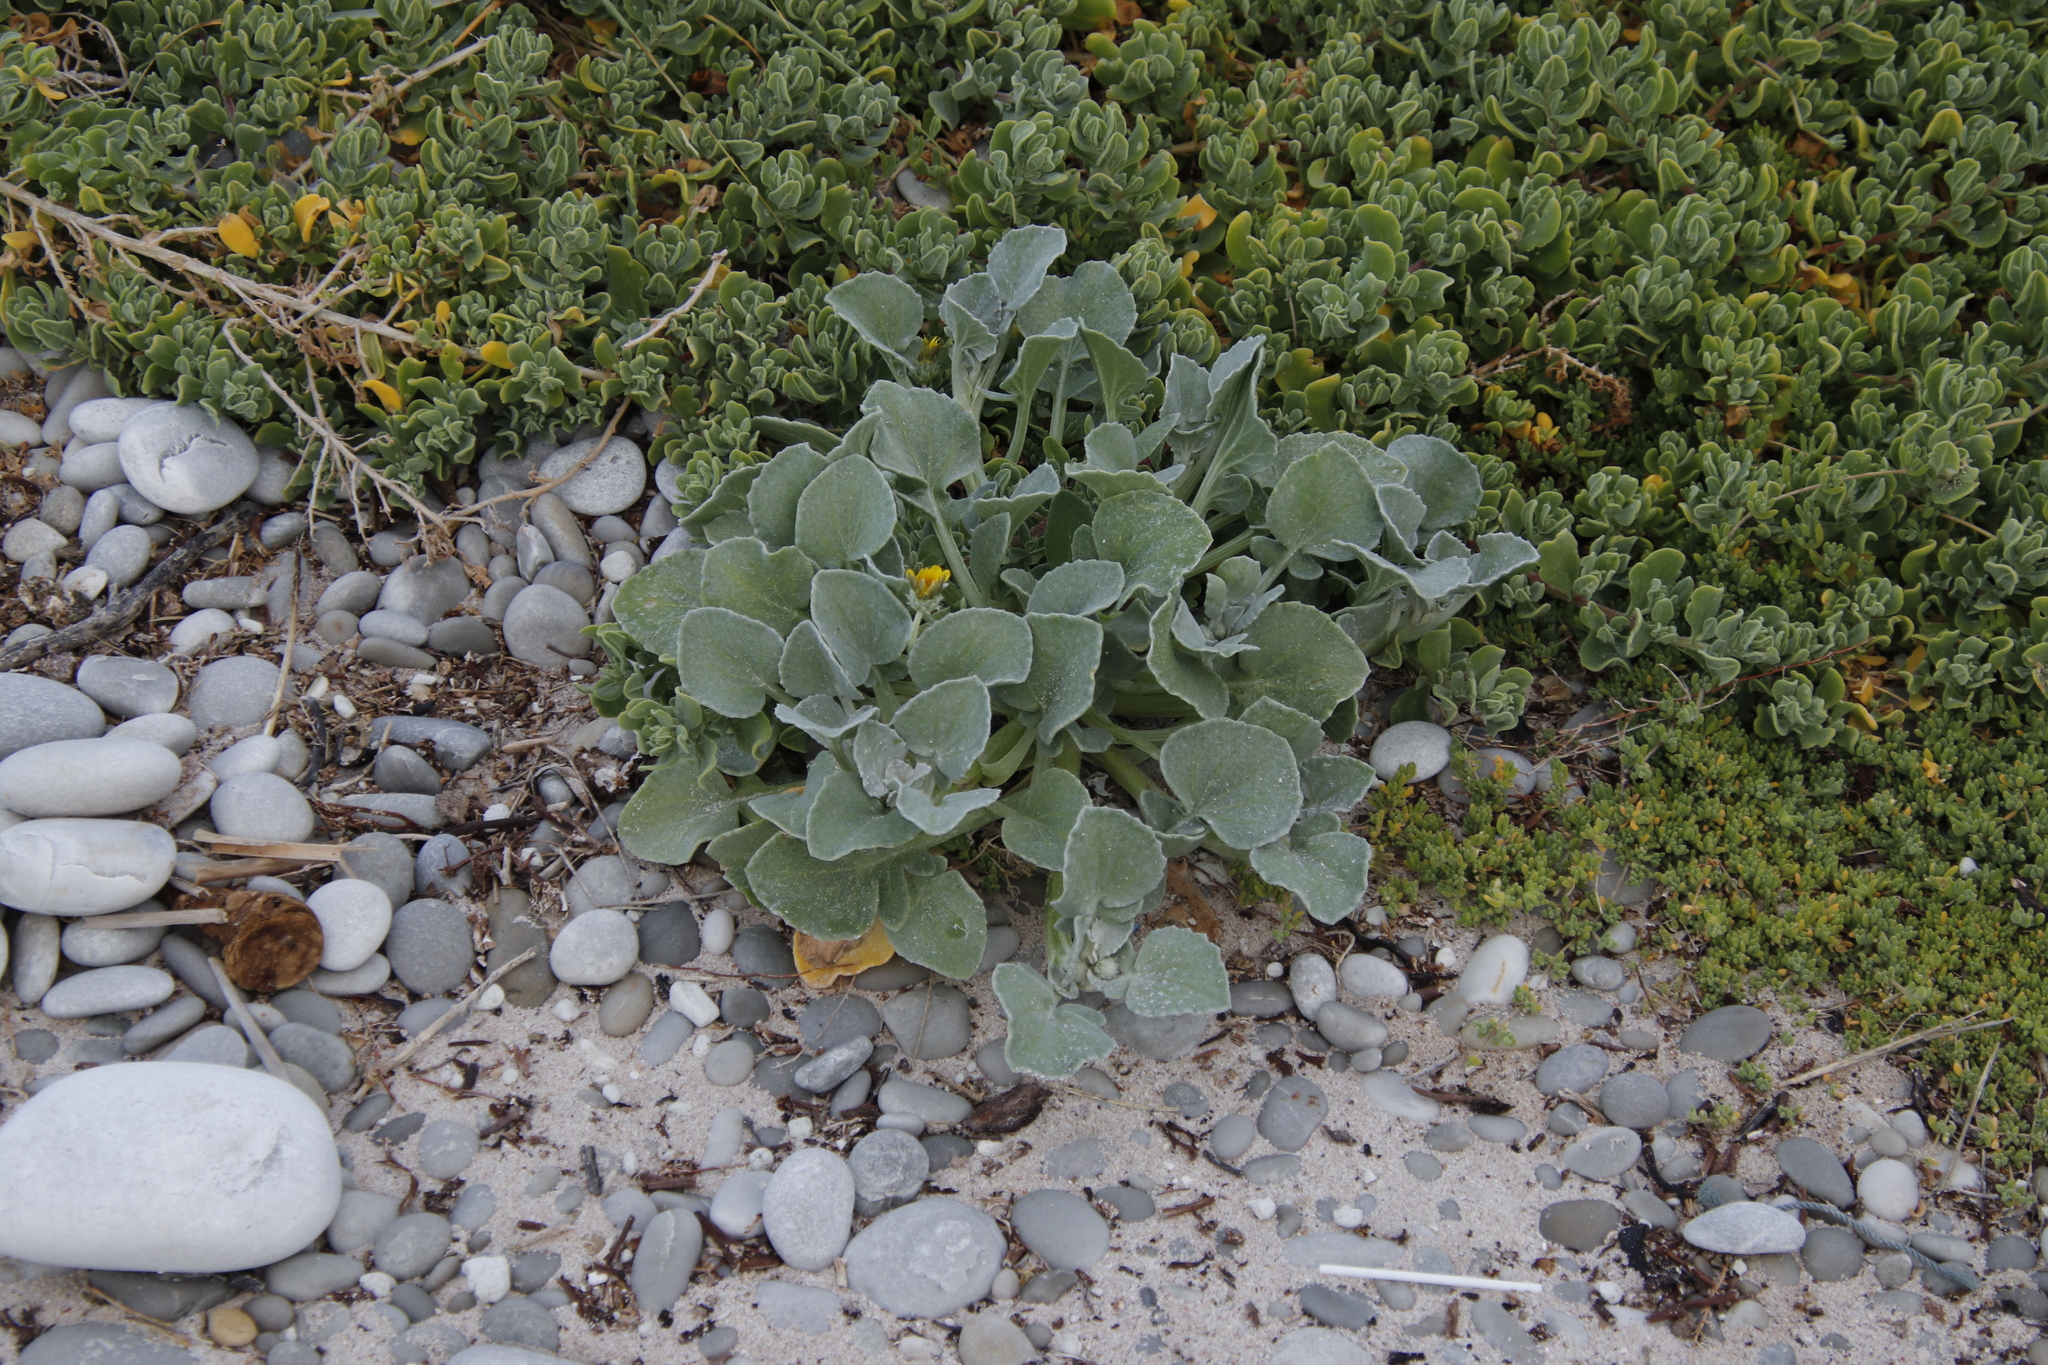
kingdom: Plantae
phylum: Tracheophyta
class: Magnoliopsida
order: Asterales
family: Asteraceae
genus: Arctotheca
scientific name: Arctotheca populifolia
